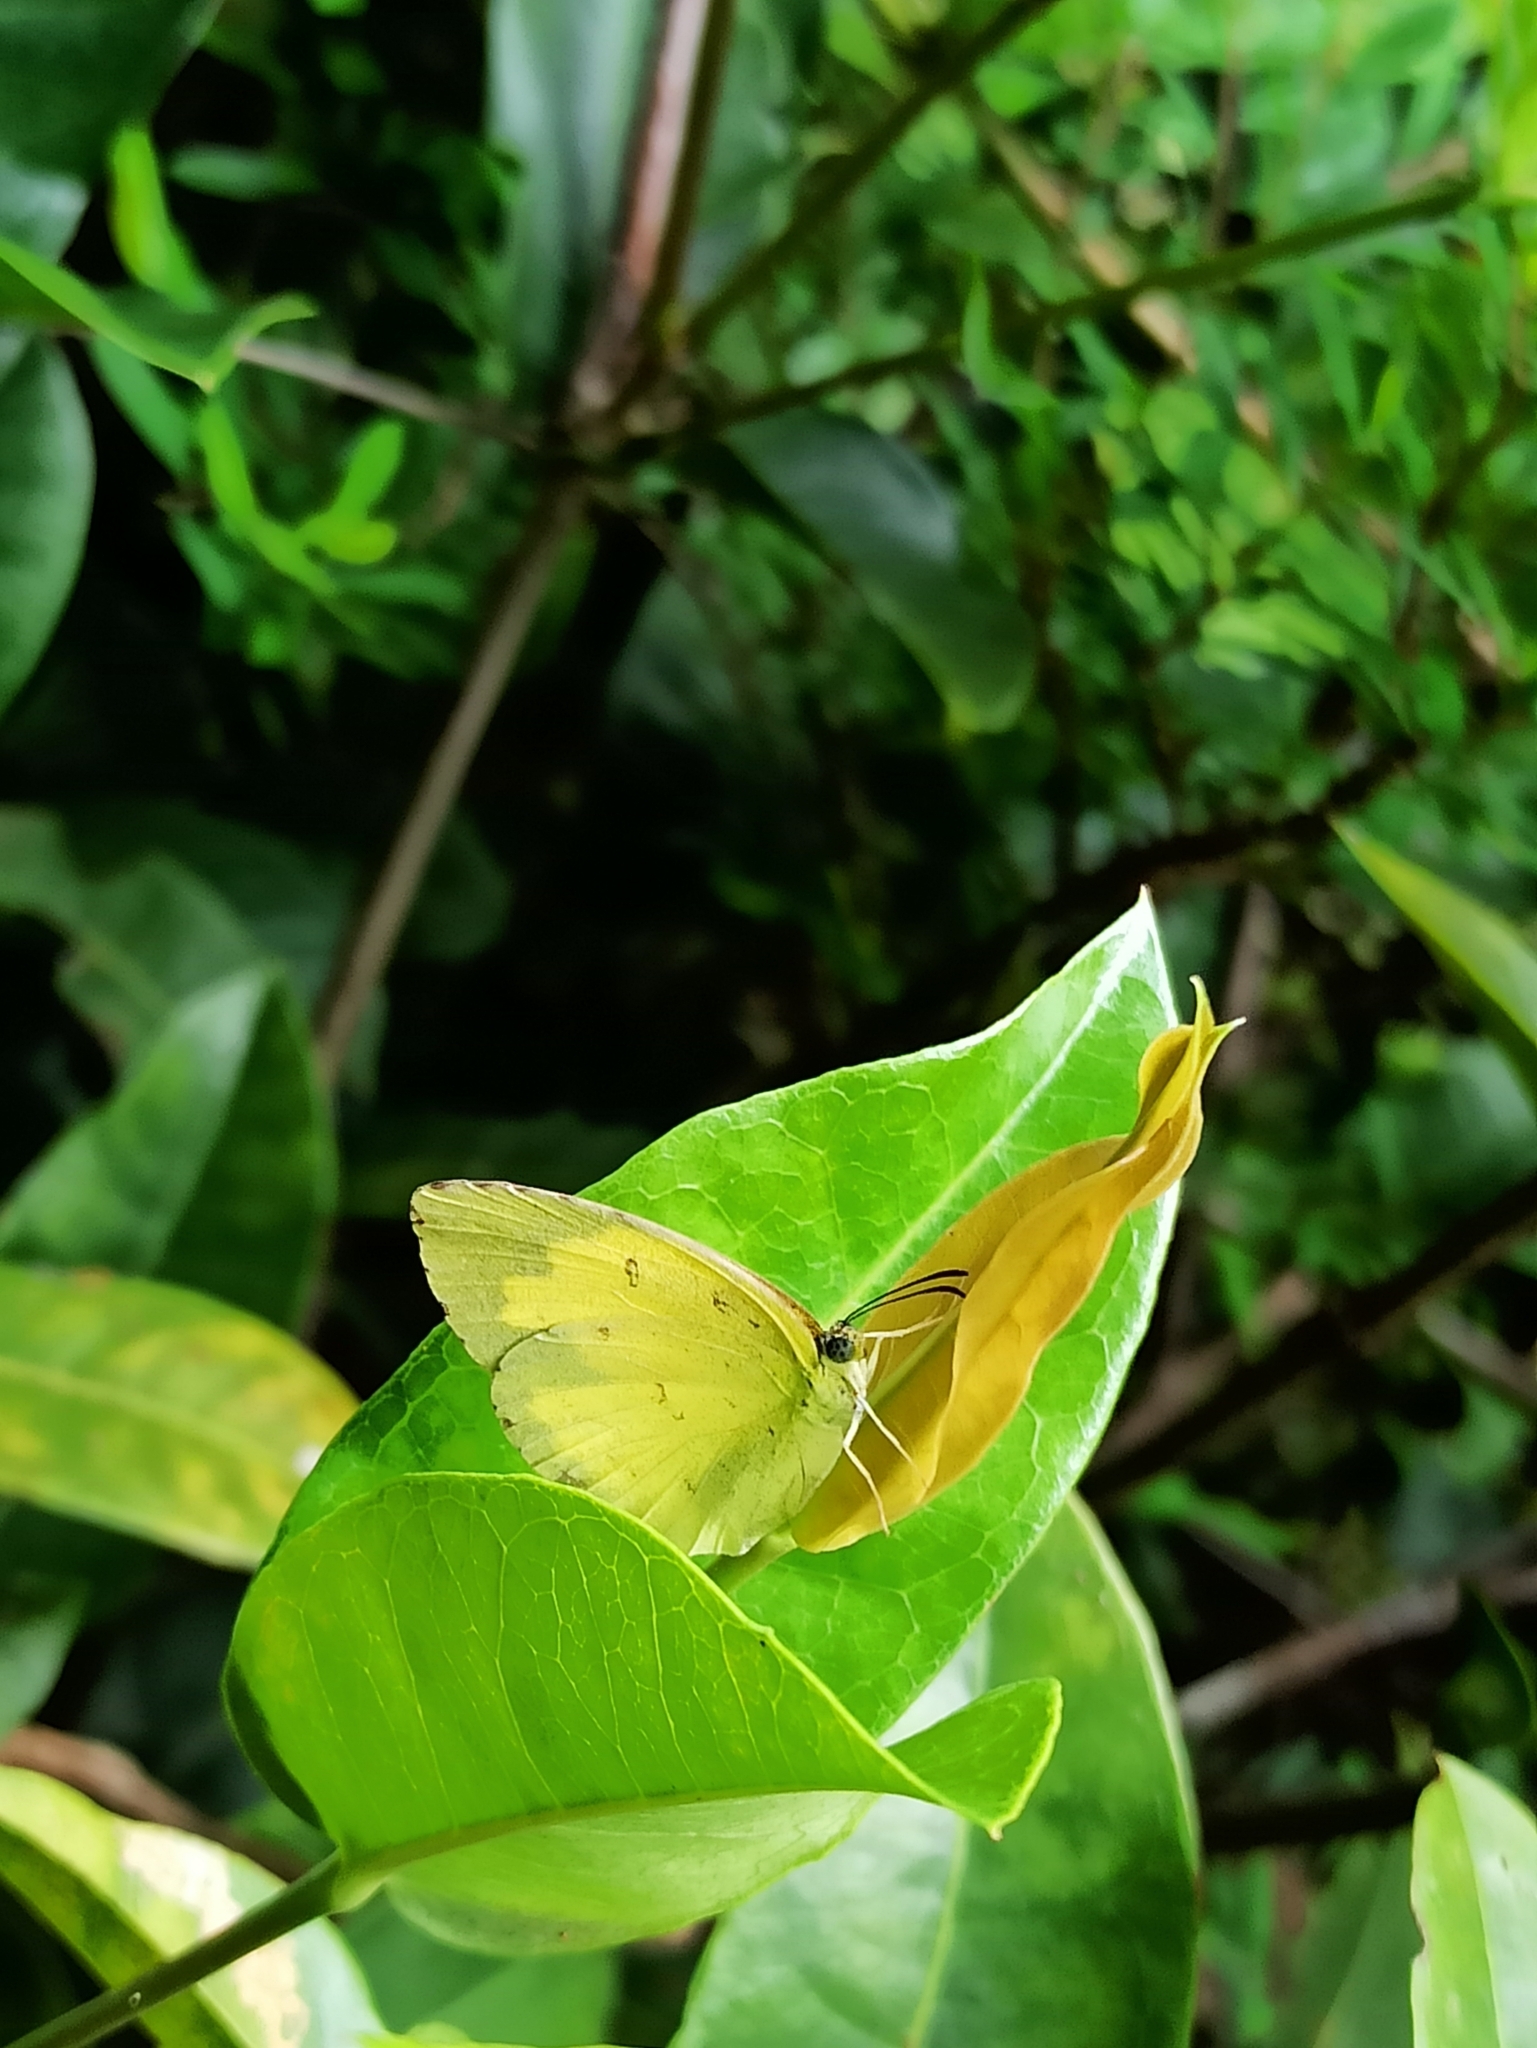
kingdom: Animalia
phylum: Arthropoda
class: Insecta
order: Lepidoptera
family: Pieridae
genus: Eurema
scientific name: Eurema hecabe
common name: Pale grass yellow
